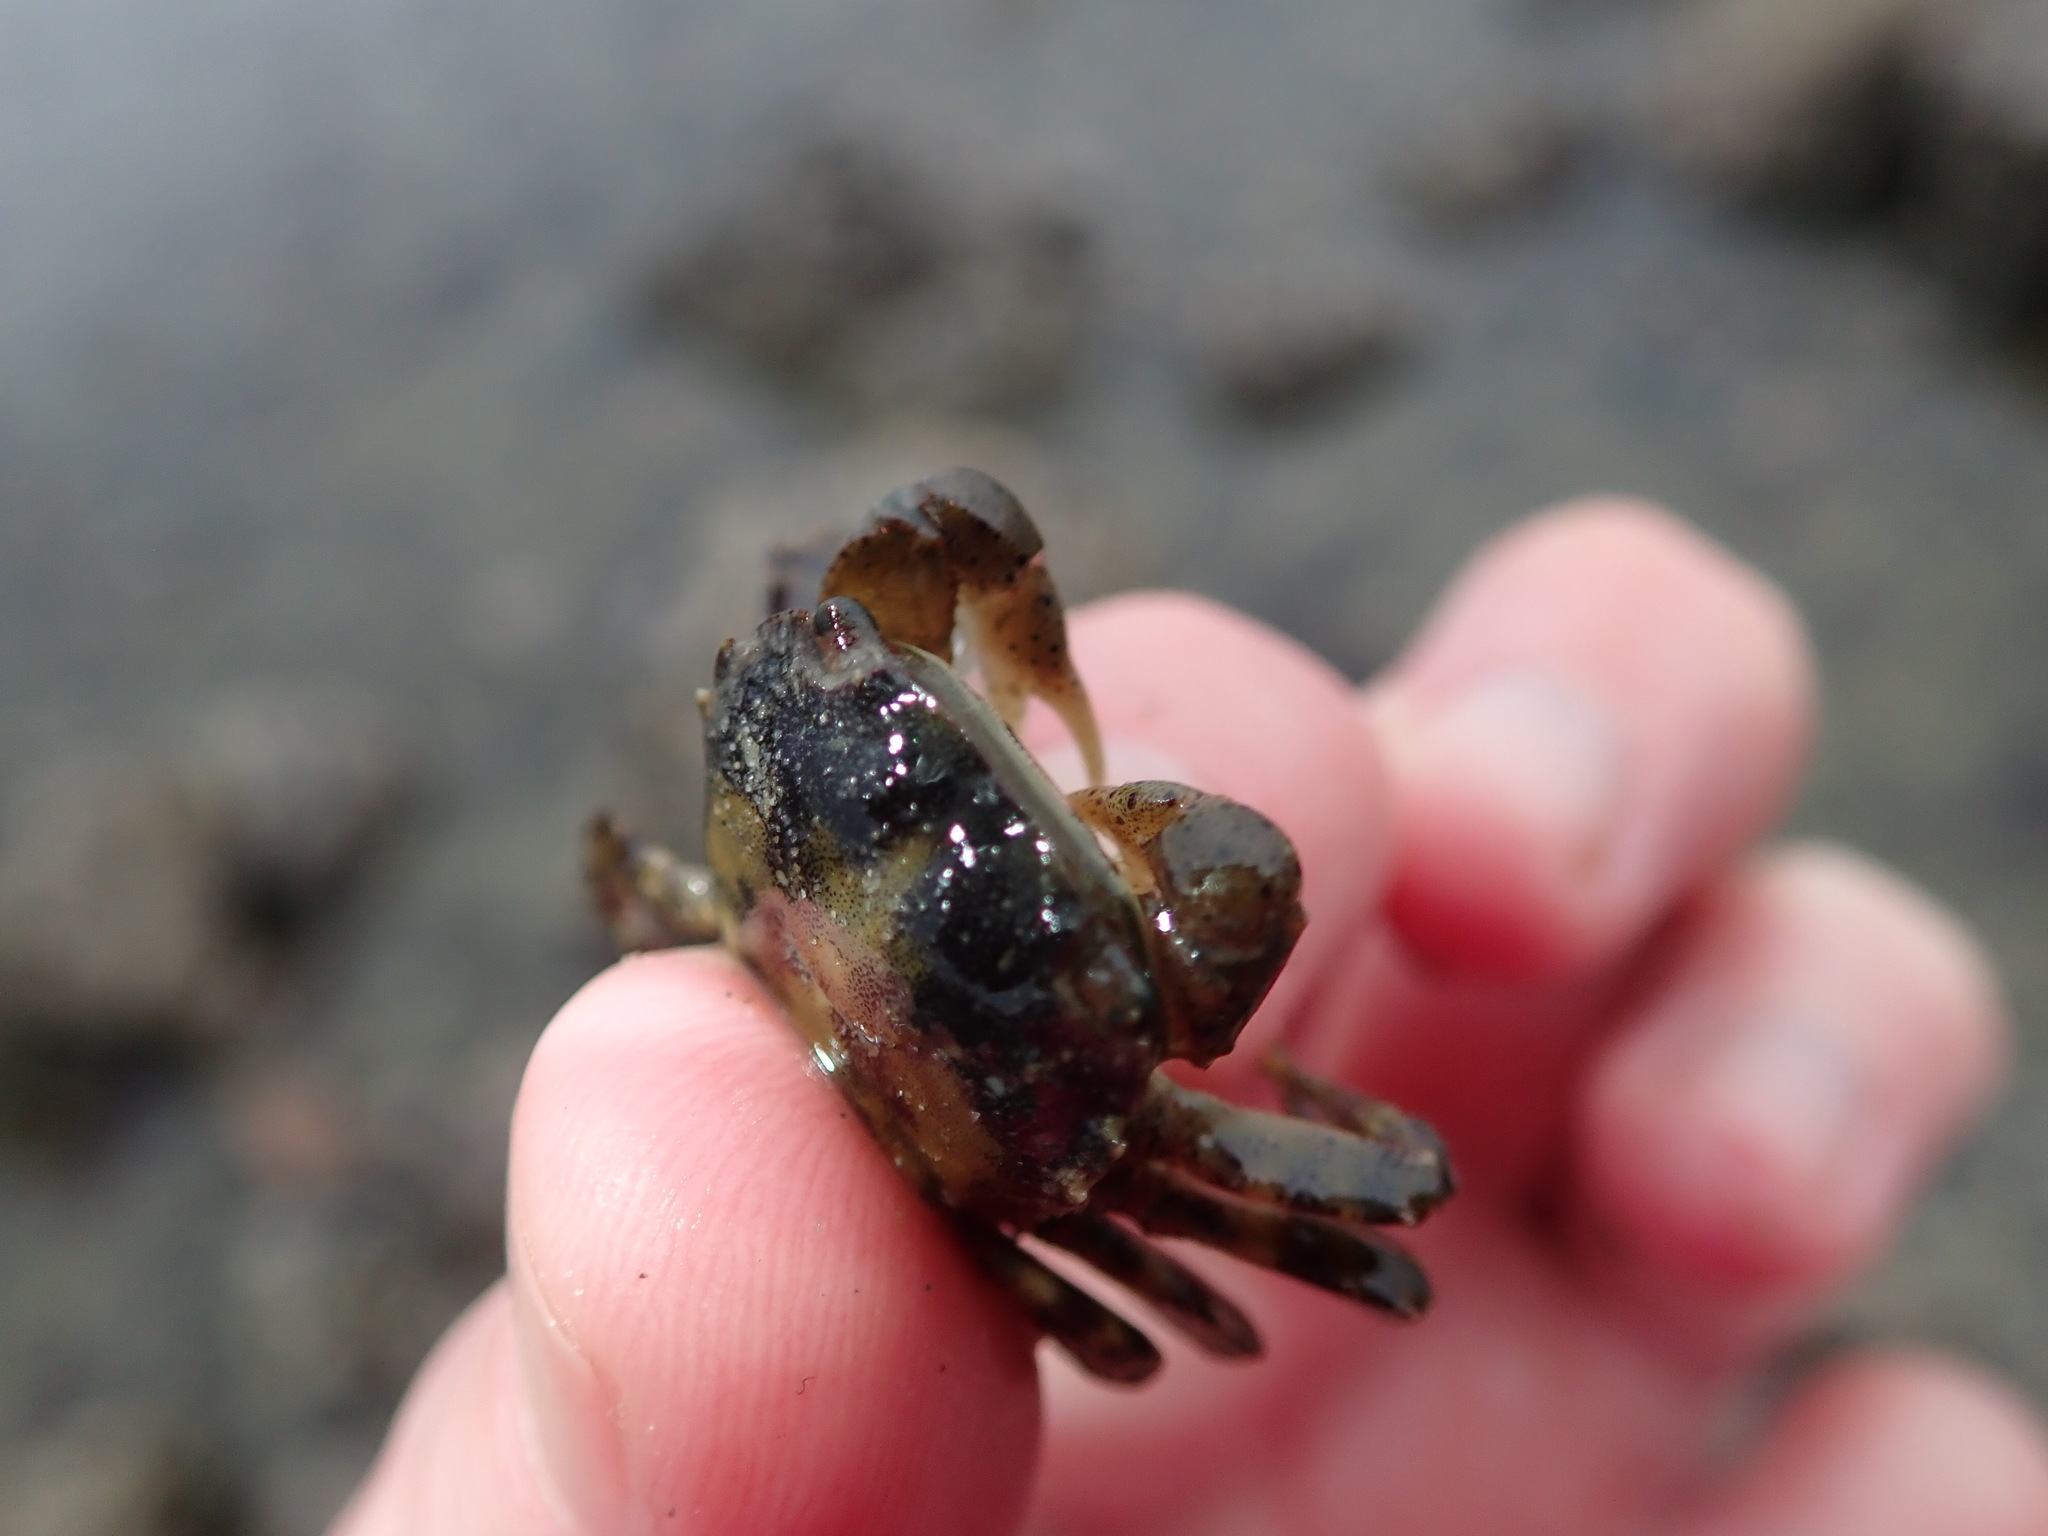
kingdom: Animalia
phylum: Arthropoda
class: Malacostraca
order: Decapoda
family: Varunidae
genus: Hemigrapsus
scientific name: Hemigrapsus sanguineus
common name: Asian shore crab
